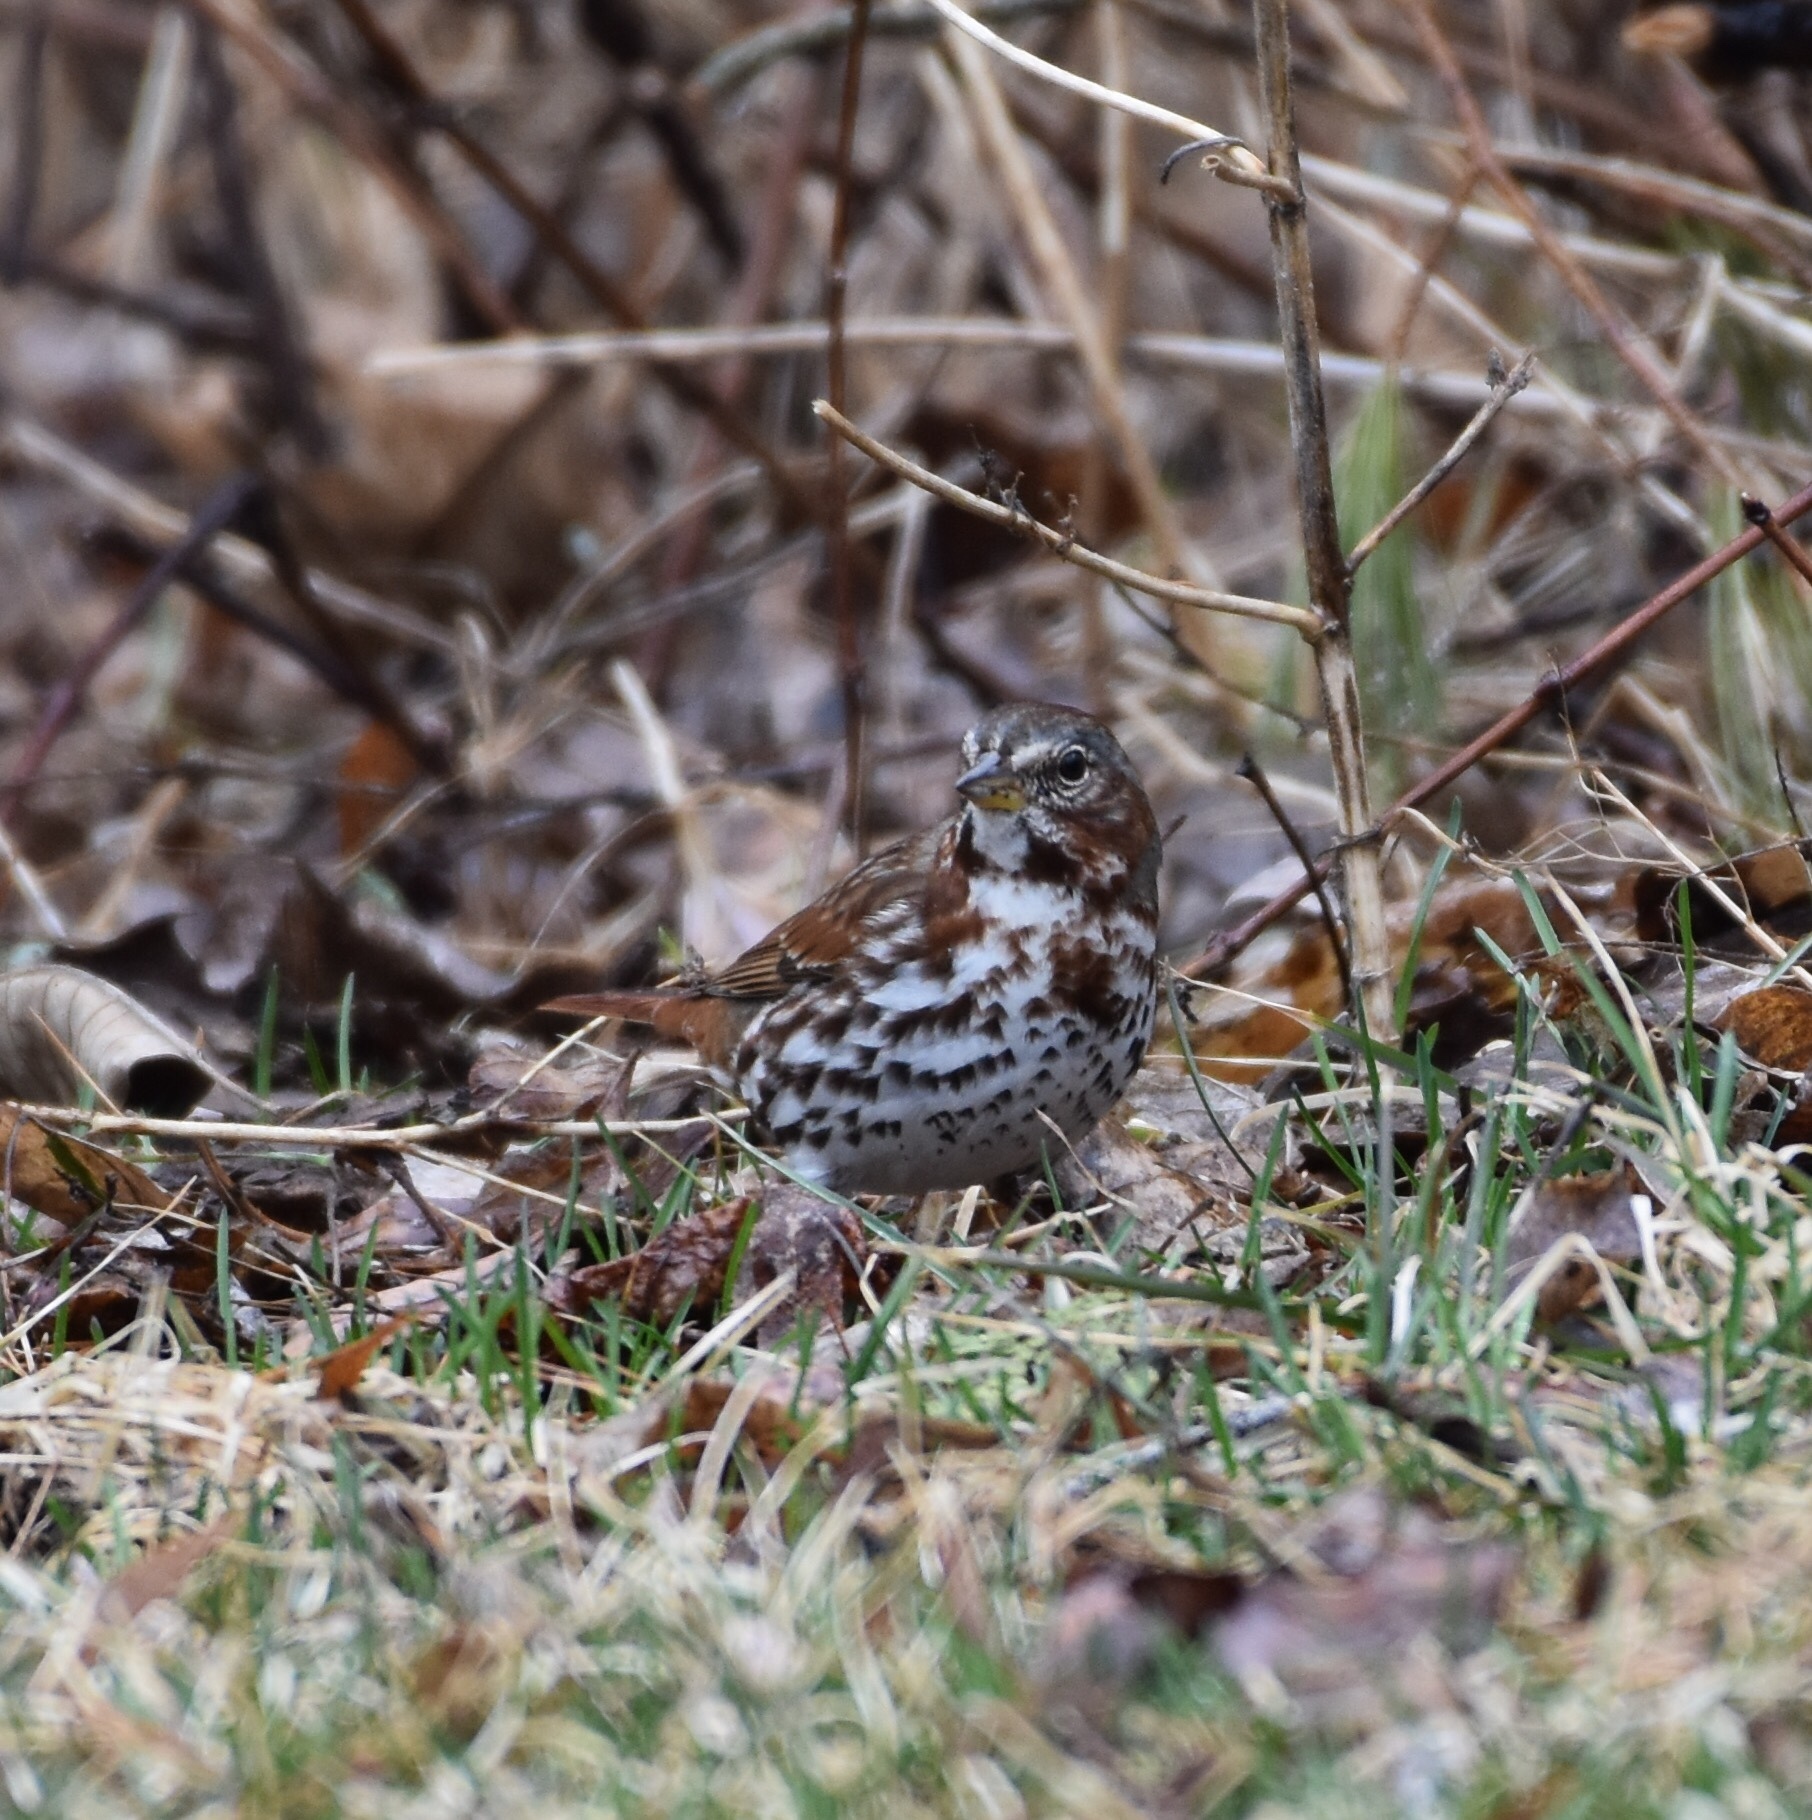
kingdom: Animalia
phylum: Chordata
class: Aves
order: Passeriformes
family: Passerellidae
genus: Passerella
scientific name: Passerella iliaca
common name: Fox sparrow
